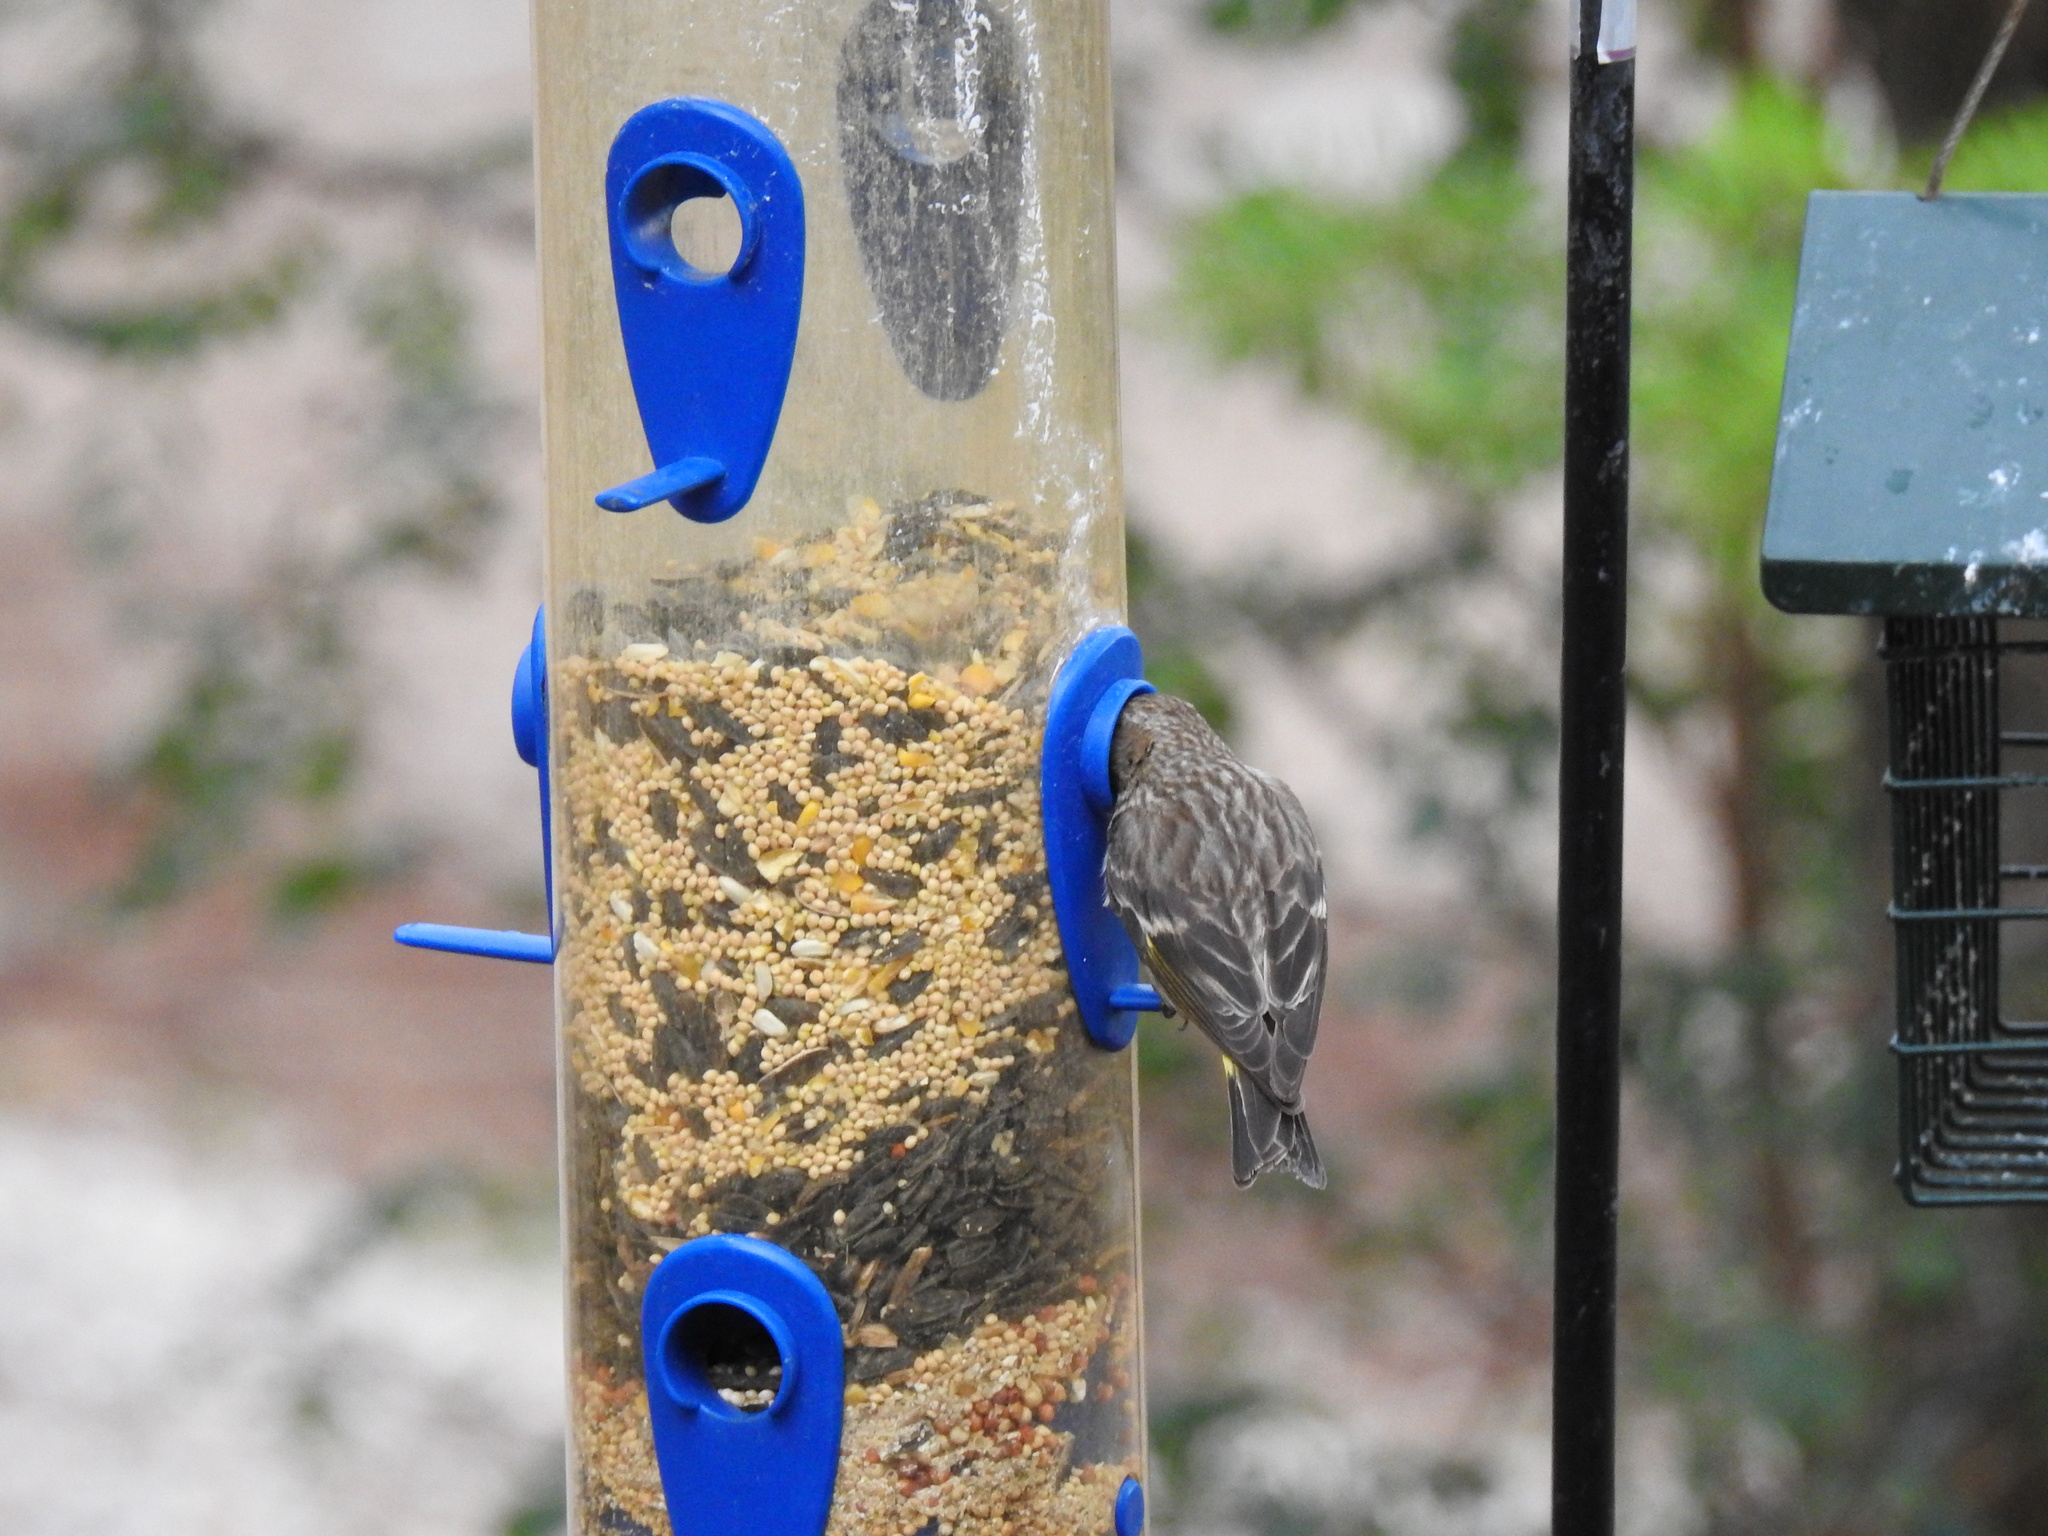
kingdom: Animalia
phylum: Chordata
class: Aves
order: Passeriformes
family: Fringillidae
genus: Spinus
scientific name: Spinus pinus
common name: Pine siskin
